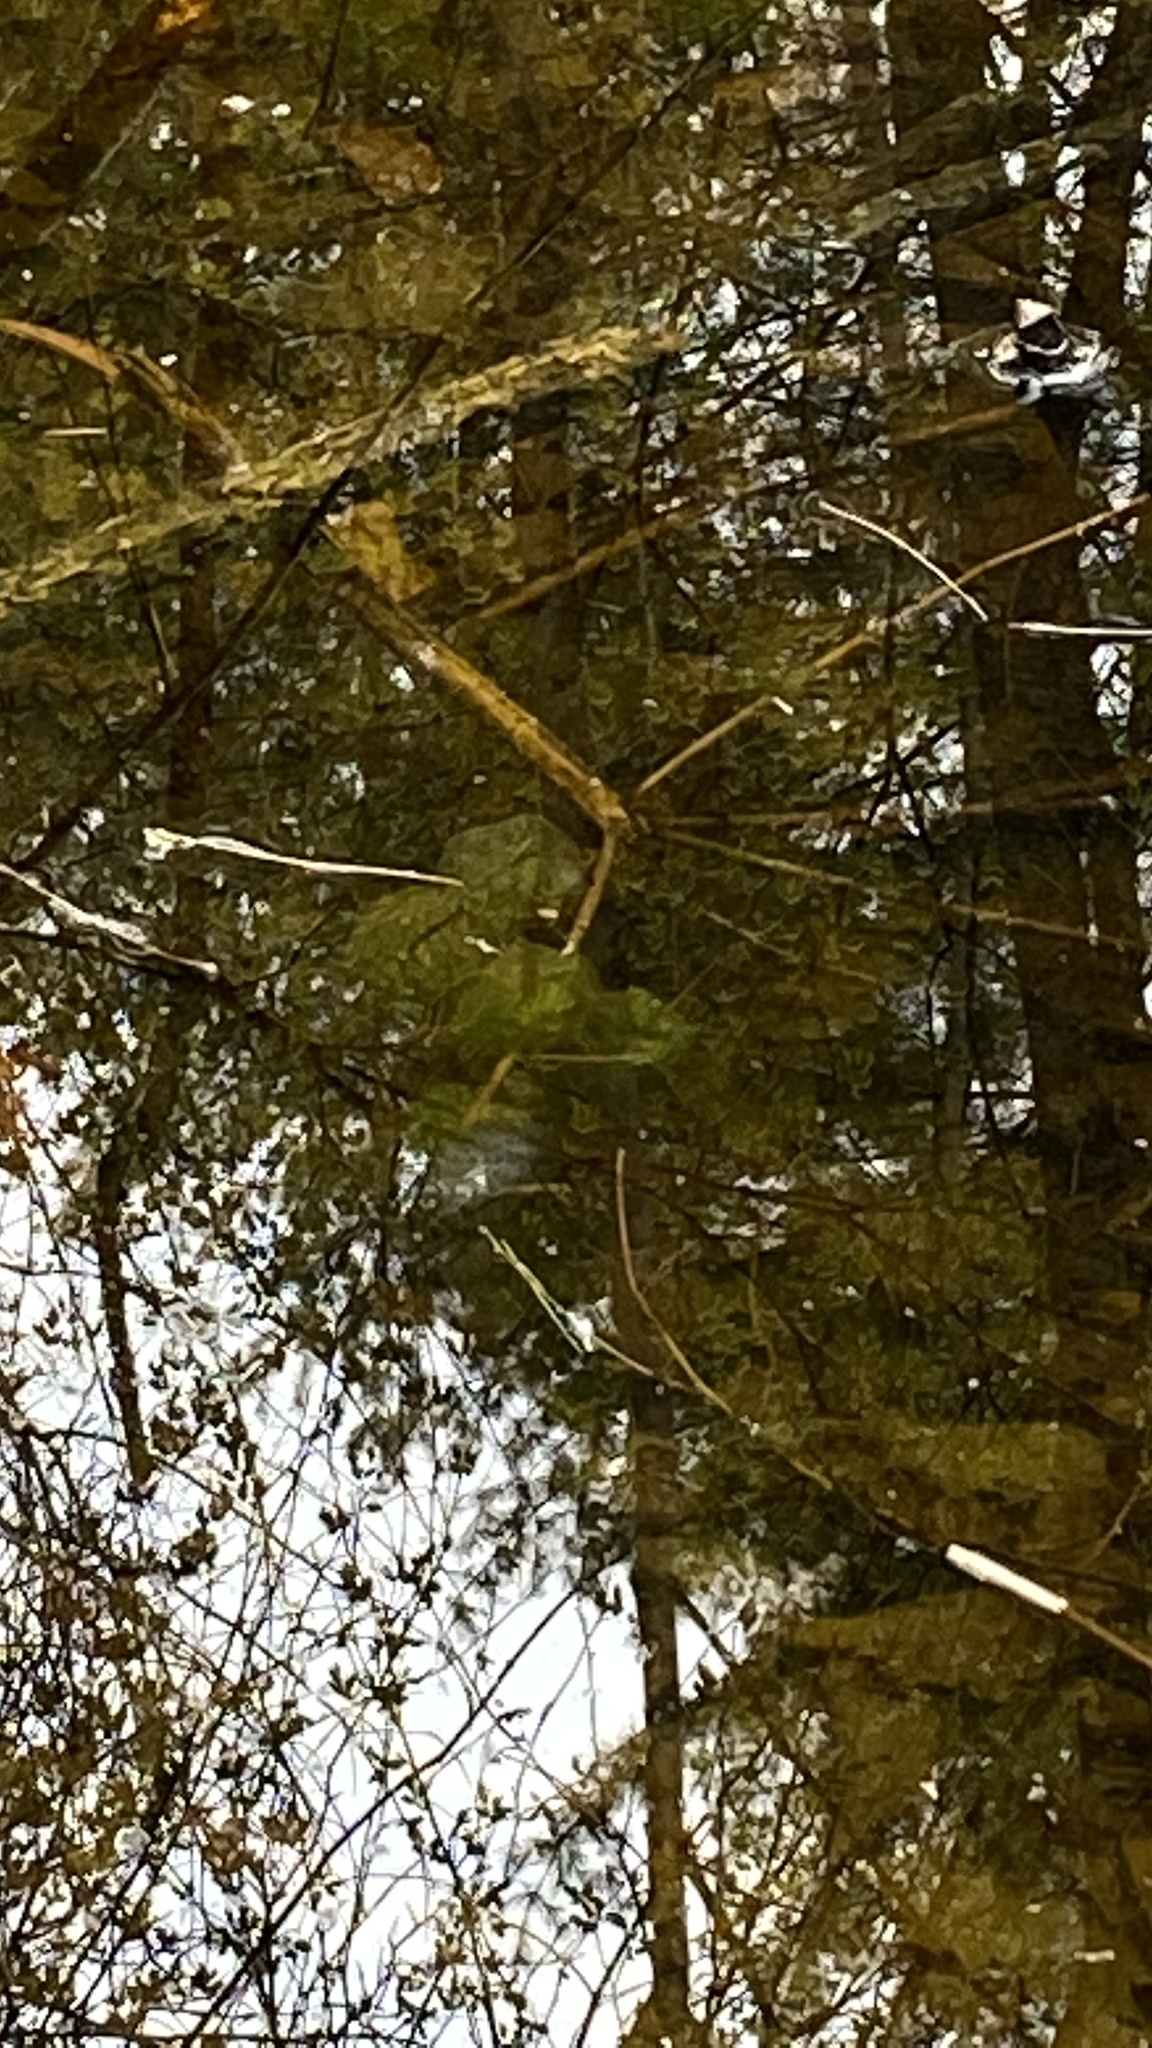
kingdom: Animalia
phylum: Chordata
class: Amphibia
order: Caudata
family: Ambystomatidae
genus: Ambystoma
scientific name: Ambystoma maculatum
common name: Spotted salamander
